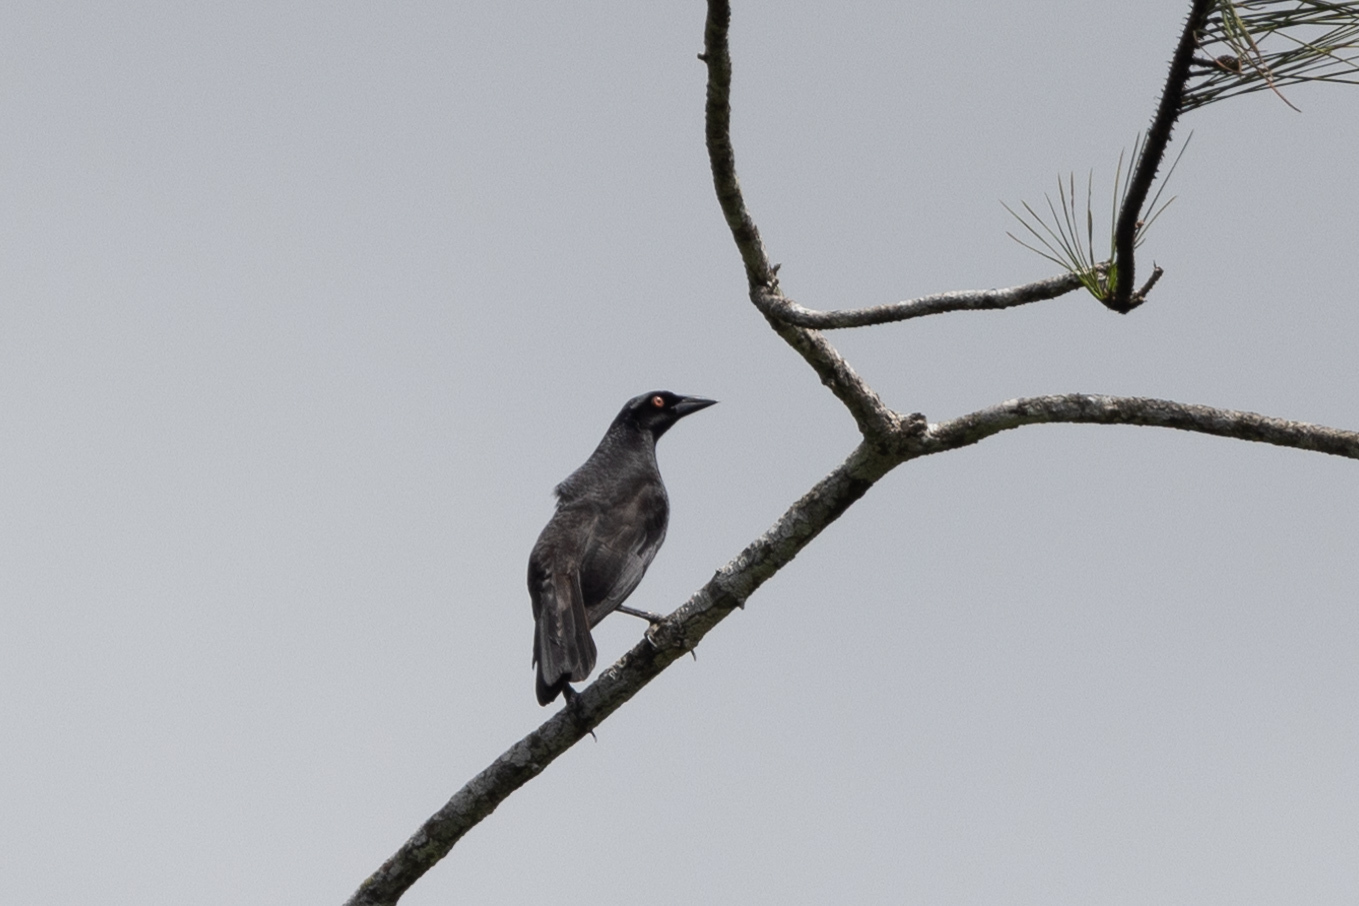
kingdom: Animalia
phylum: Chordata
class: Aves
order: Passeriformes
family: Icteridae
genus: Molothrus
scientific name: Molothrus oryzivorus
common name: Giant cowbird
